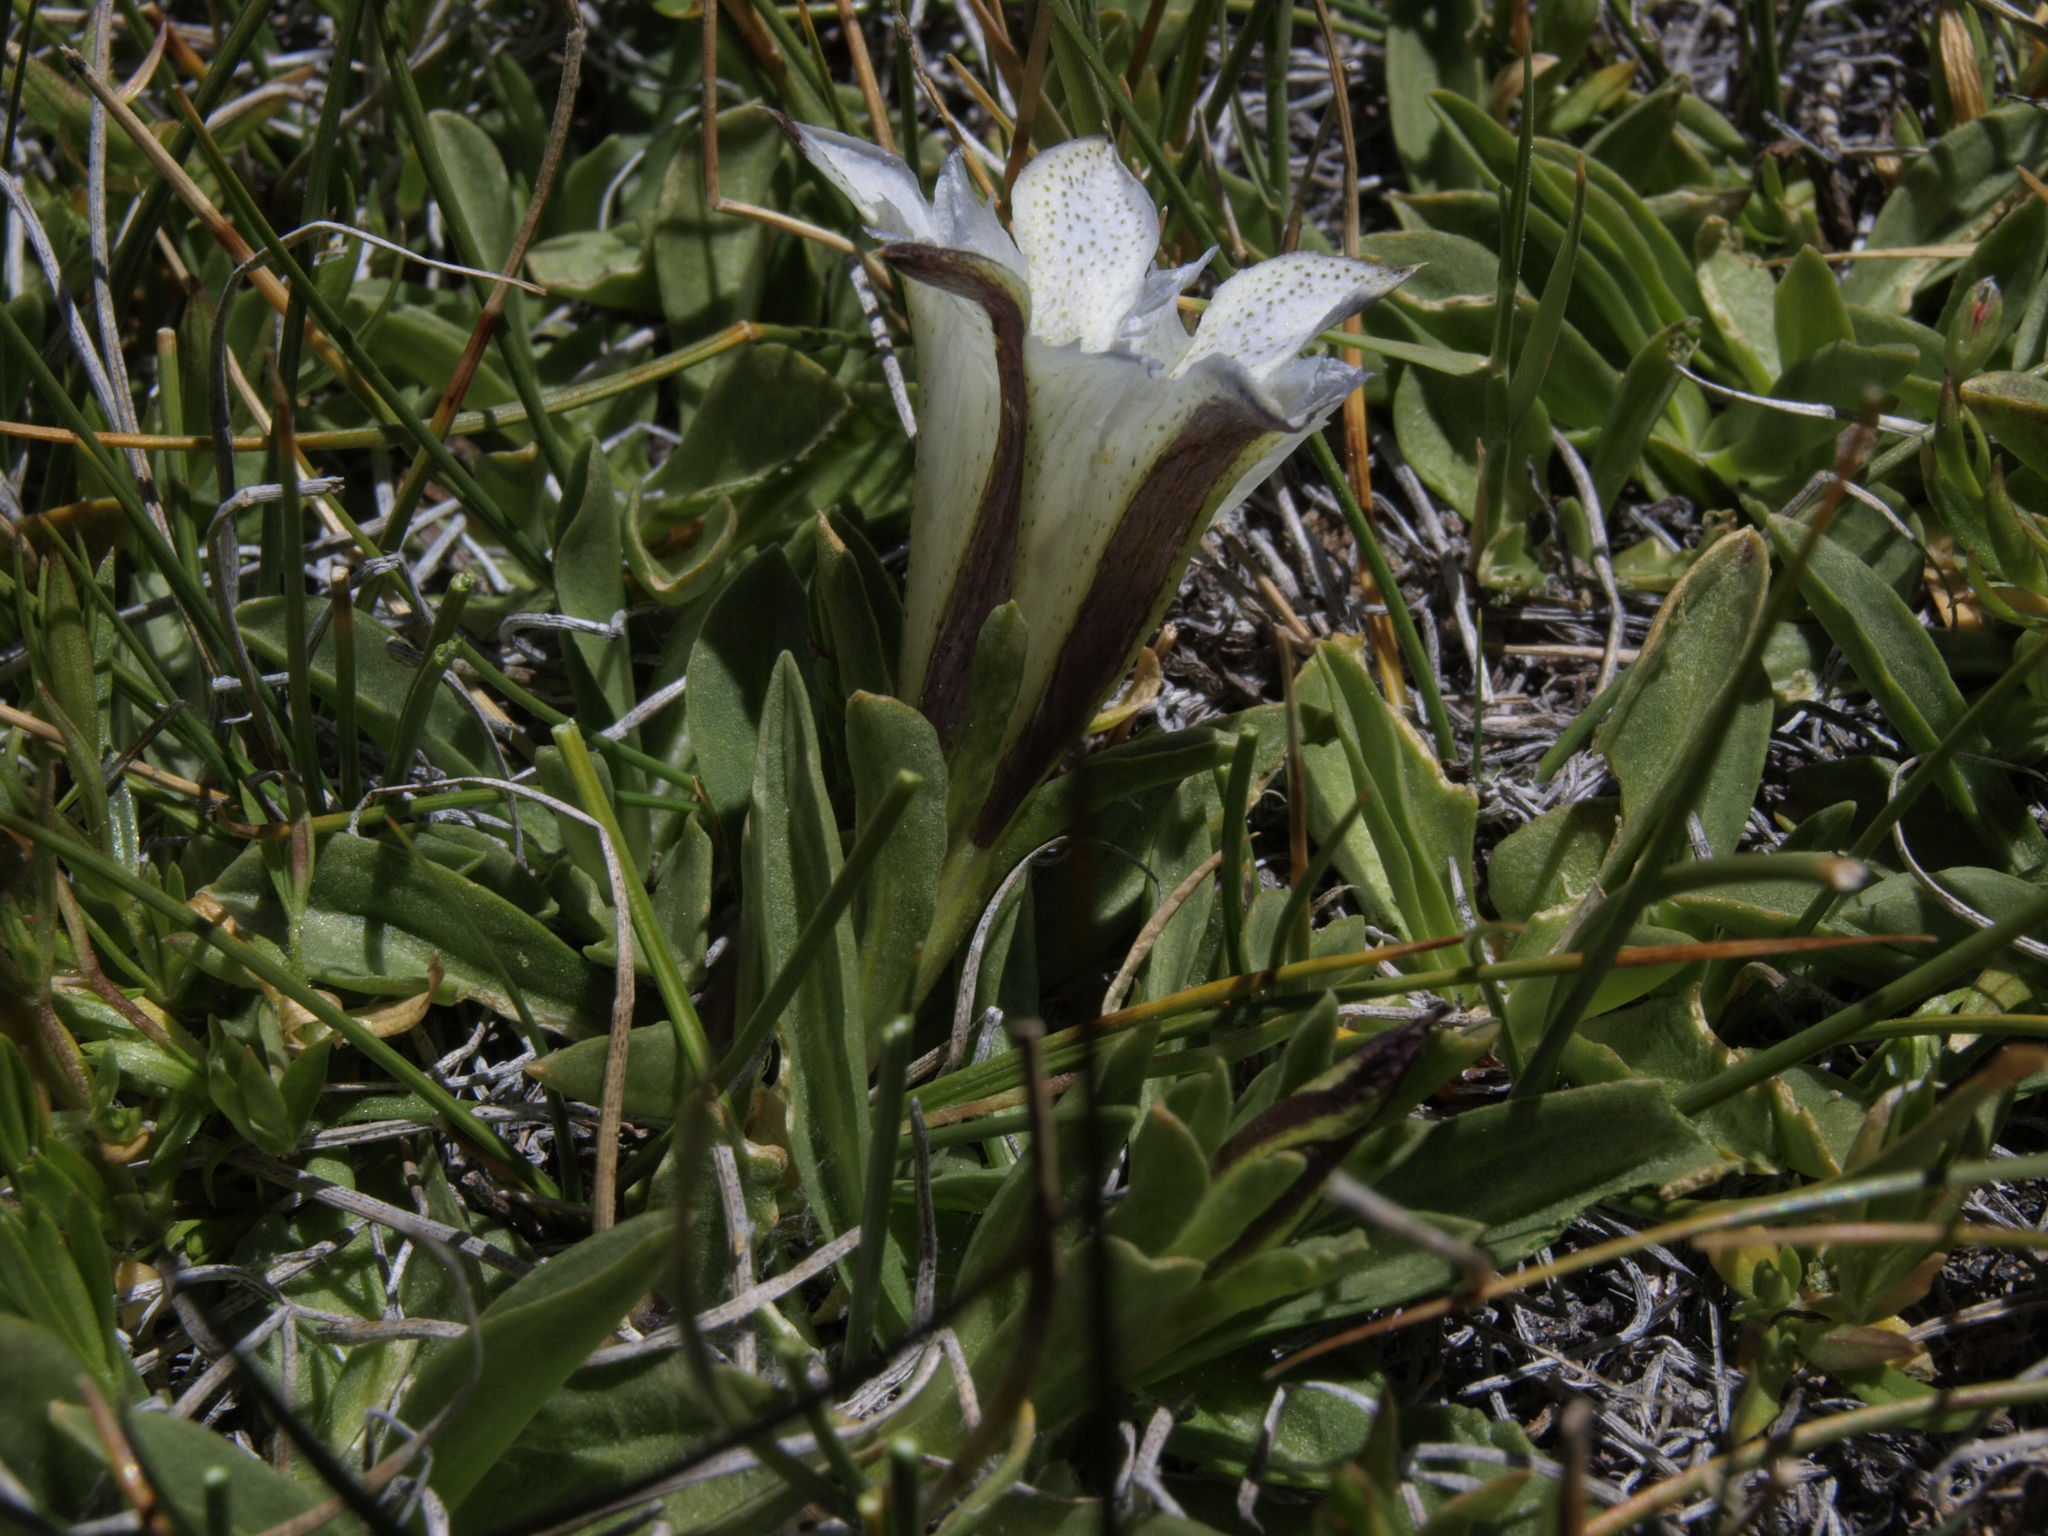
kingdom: Plantae
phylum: Tracheophyta
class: Magnoliopsida
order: Gentianales
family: Gentianaceae
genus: Gentiana
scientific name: Gentiana newberryi
